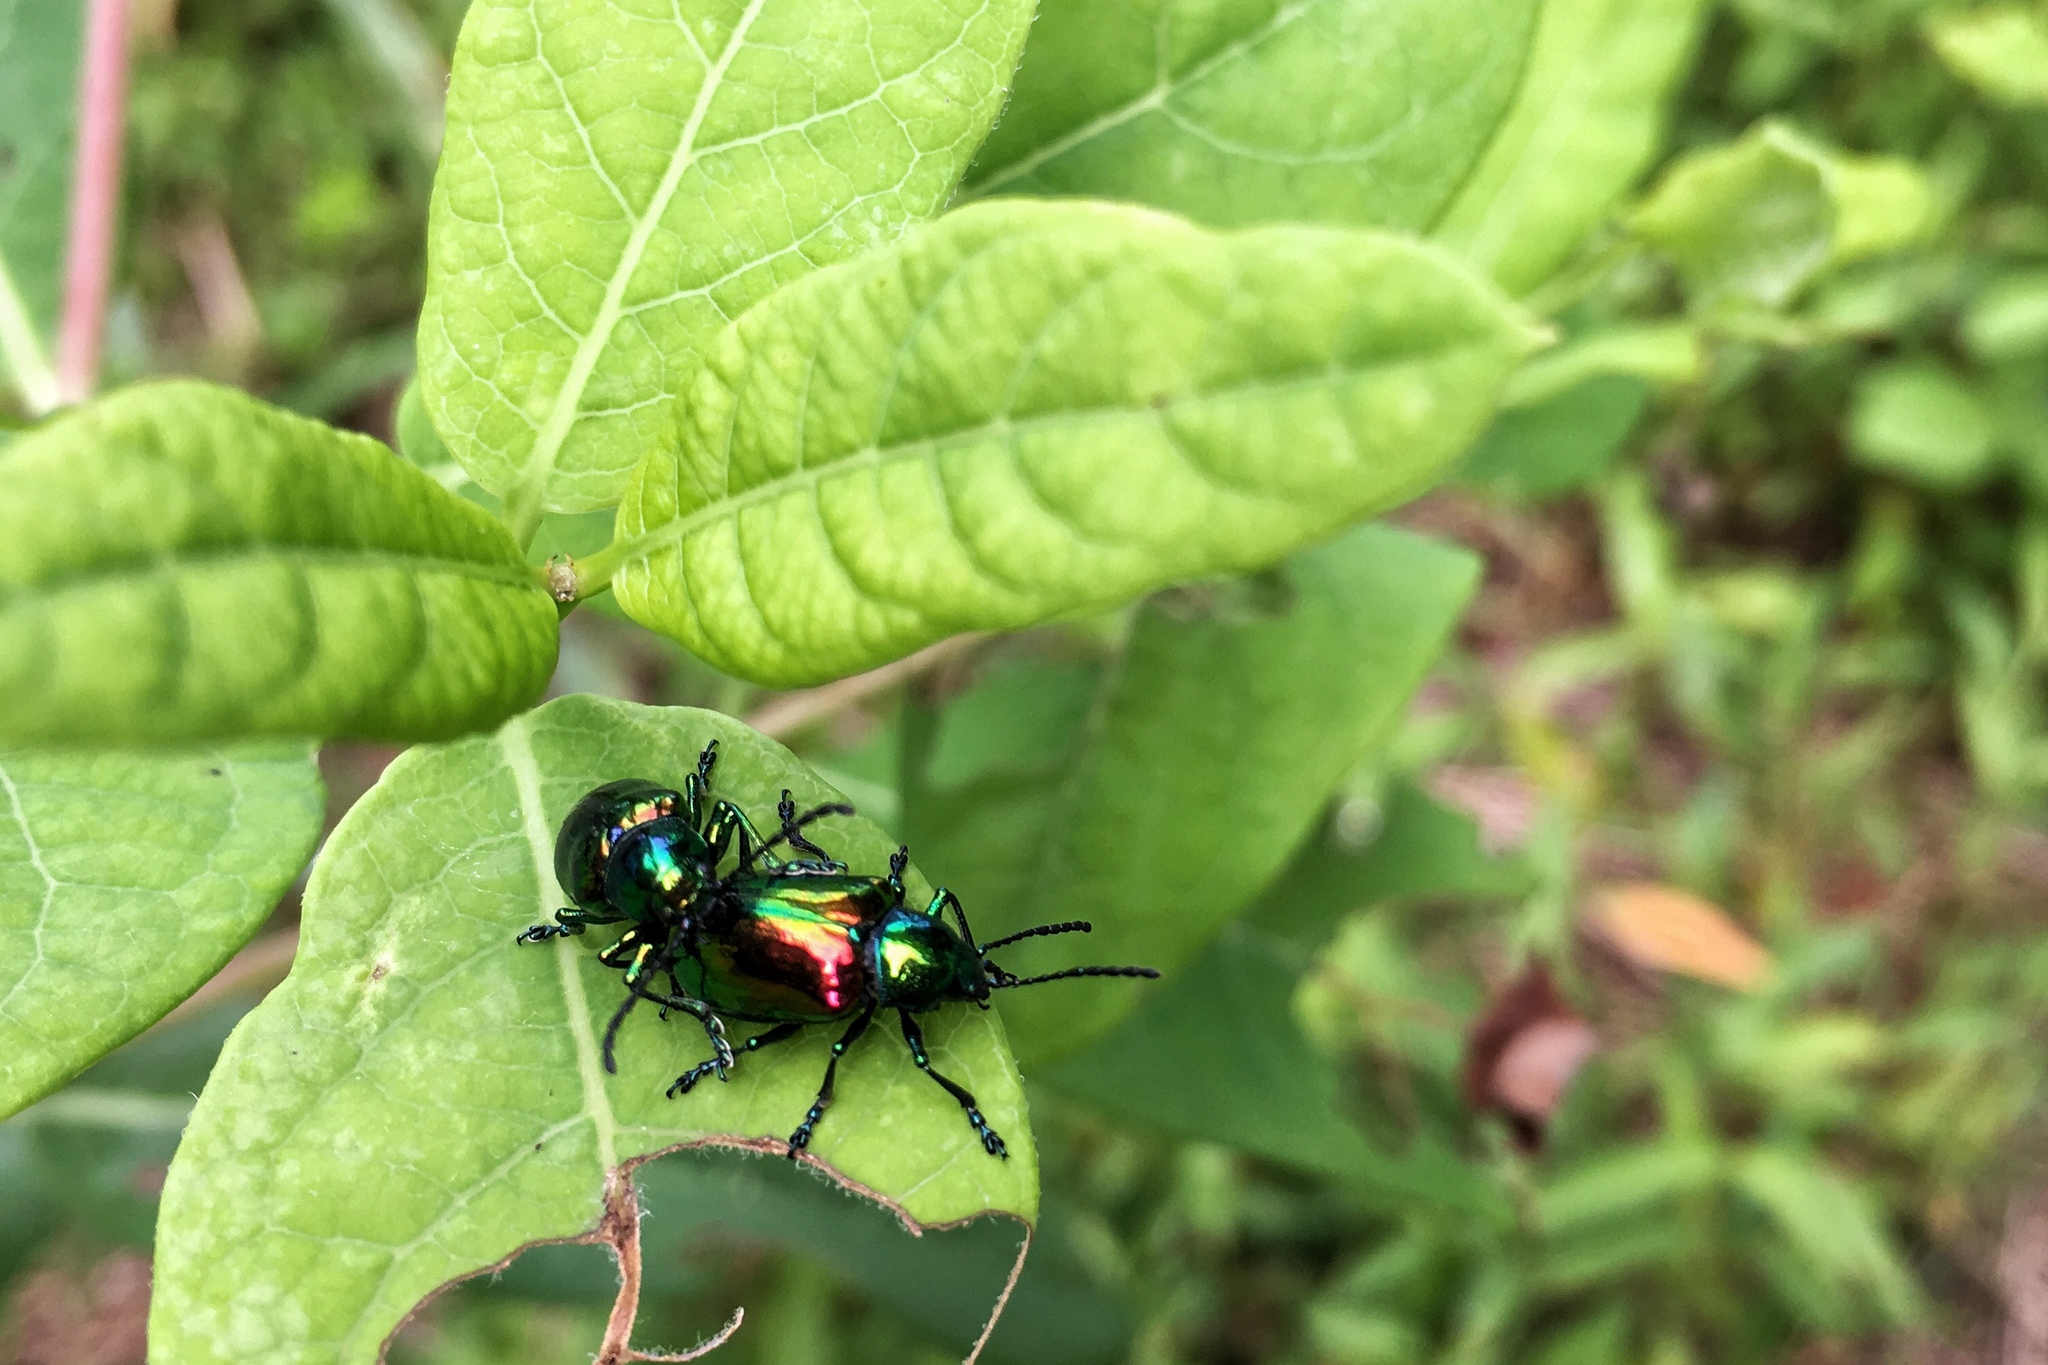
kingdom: Animalia
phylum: Arthropoda
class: Insecta
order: Coleoptera
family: Chrysomelidae
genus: Chrysochus
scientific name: Chrysochus auratus
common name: Dogbane leaf beetle
